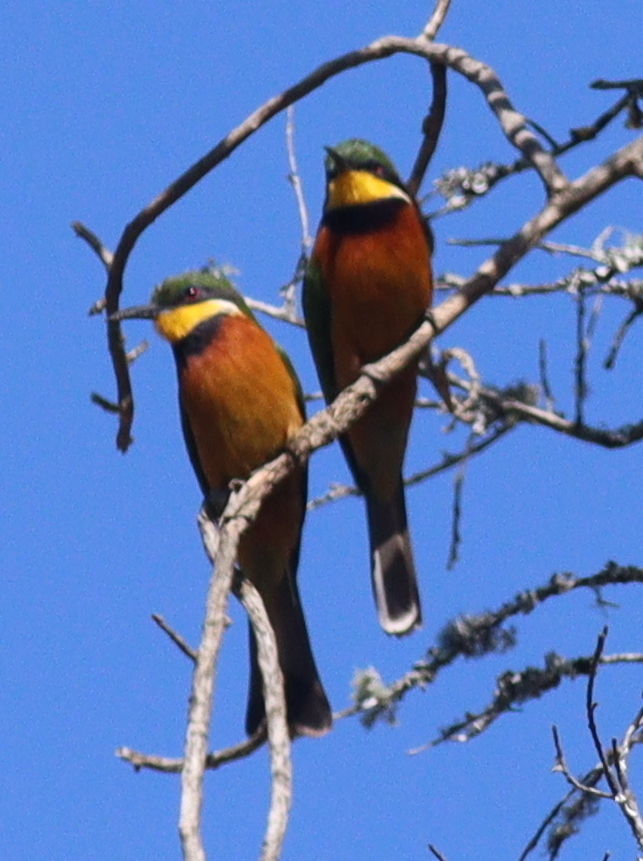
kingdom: Animalia
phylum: Chordata
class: Aves
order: Coraciiformes
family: Meropidae
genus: Merops
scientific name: Merops oreobates
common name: Cinnamon-chested bee-eater
